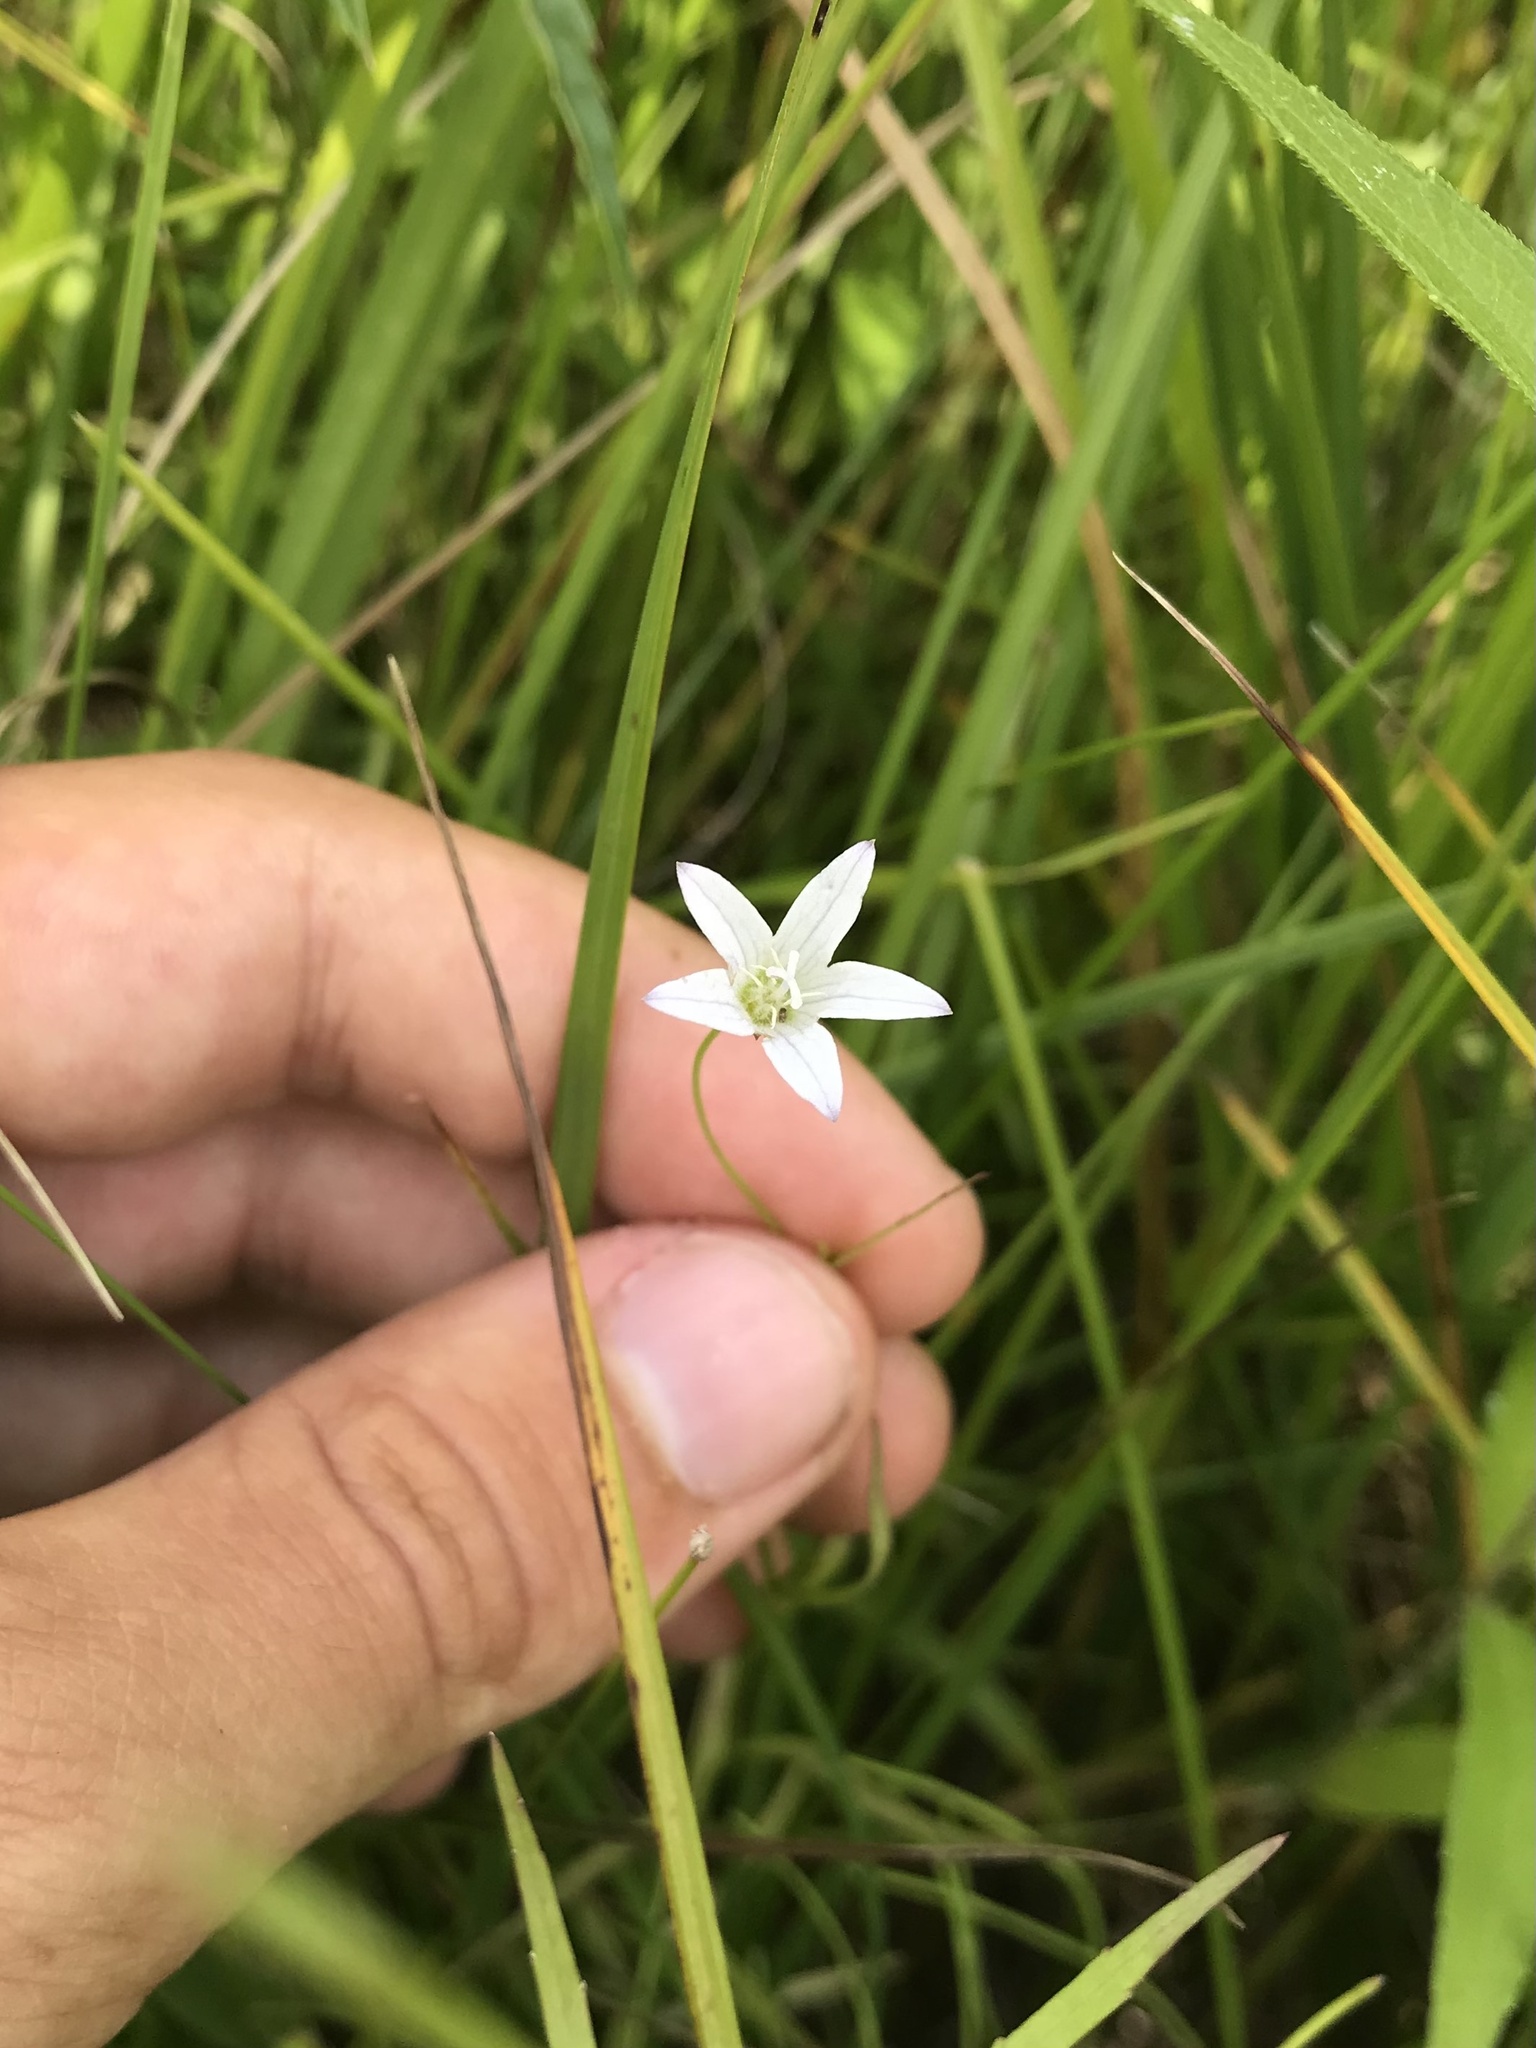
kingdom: Plantae
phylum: Tracheophyta
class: Magnoliopsida
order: Asterales
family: Campanulaceae
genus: Palustricodon
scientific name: Palustricodon aparinoides
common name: Bedstraw bellflower
